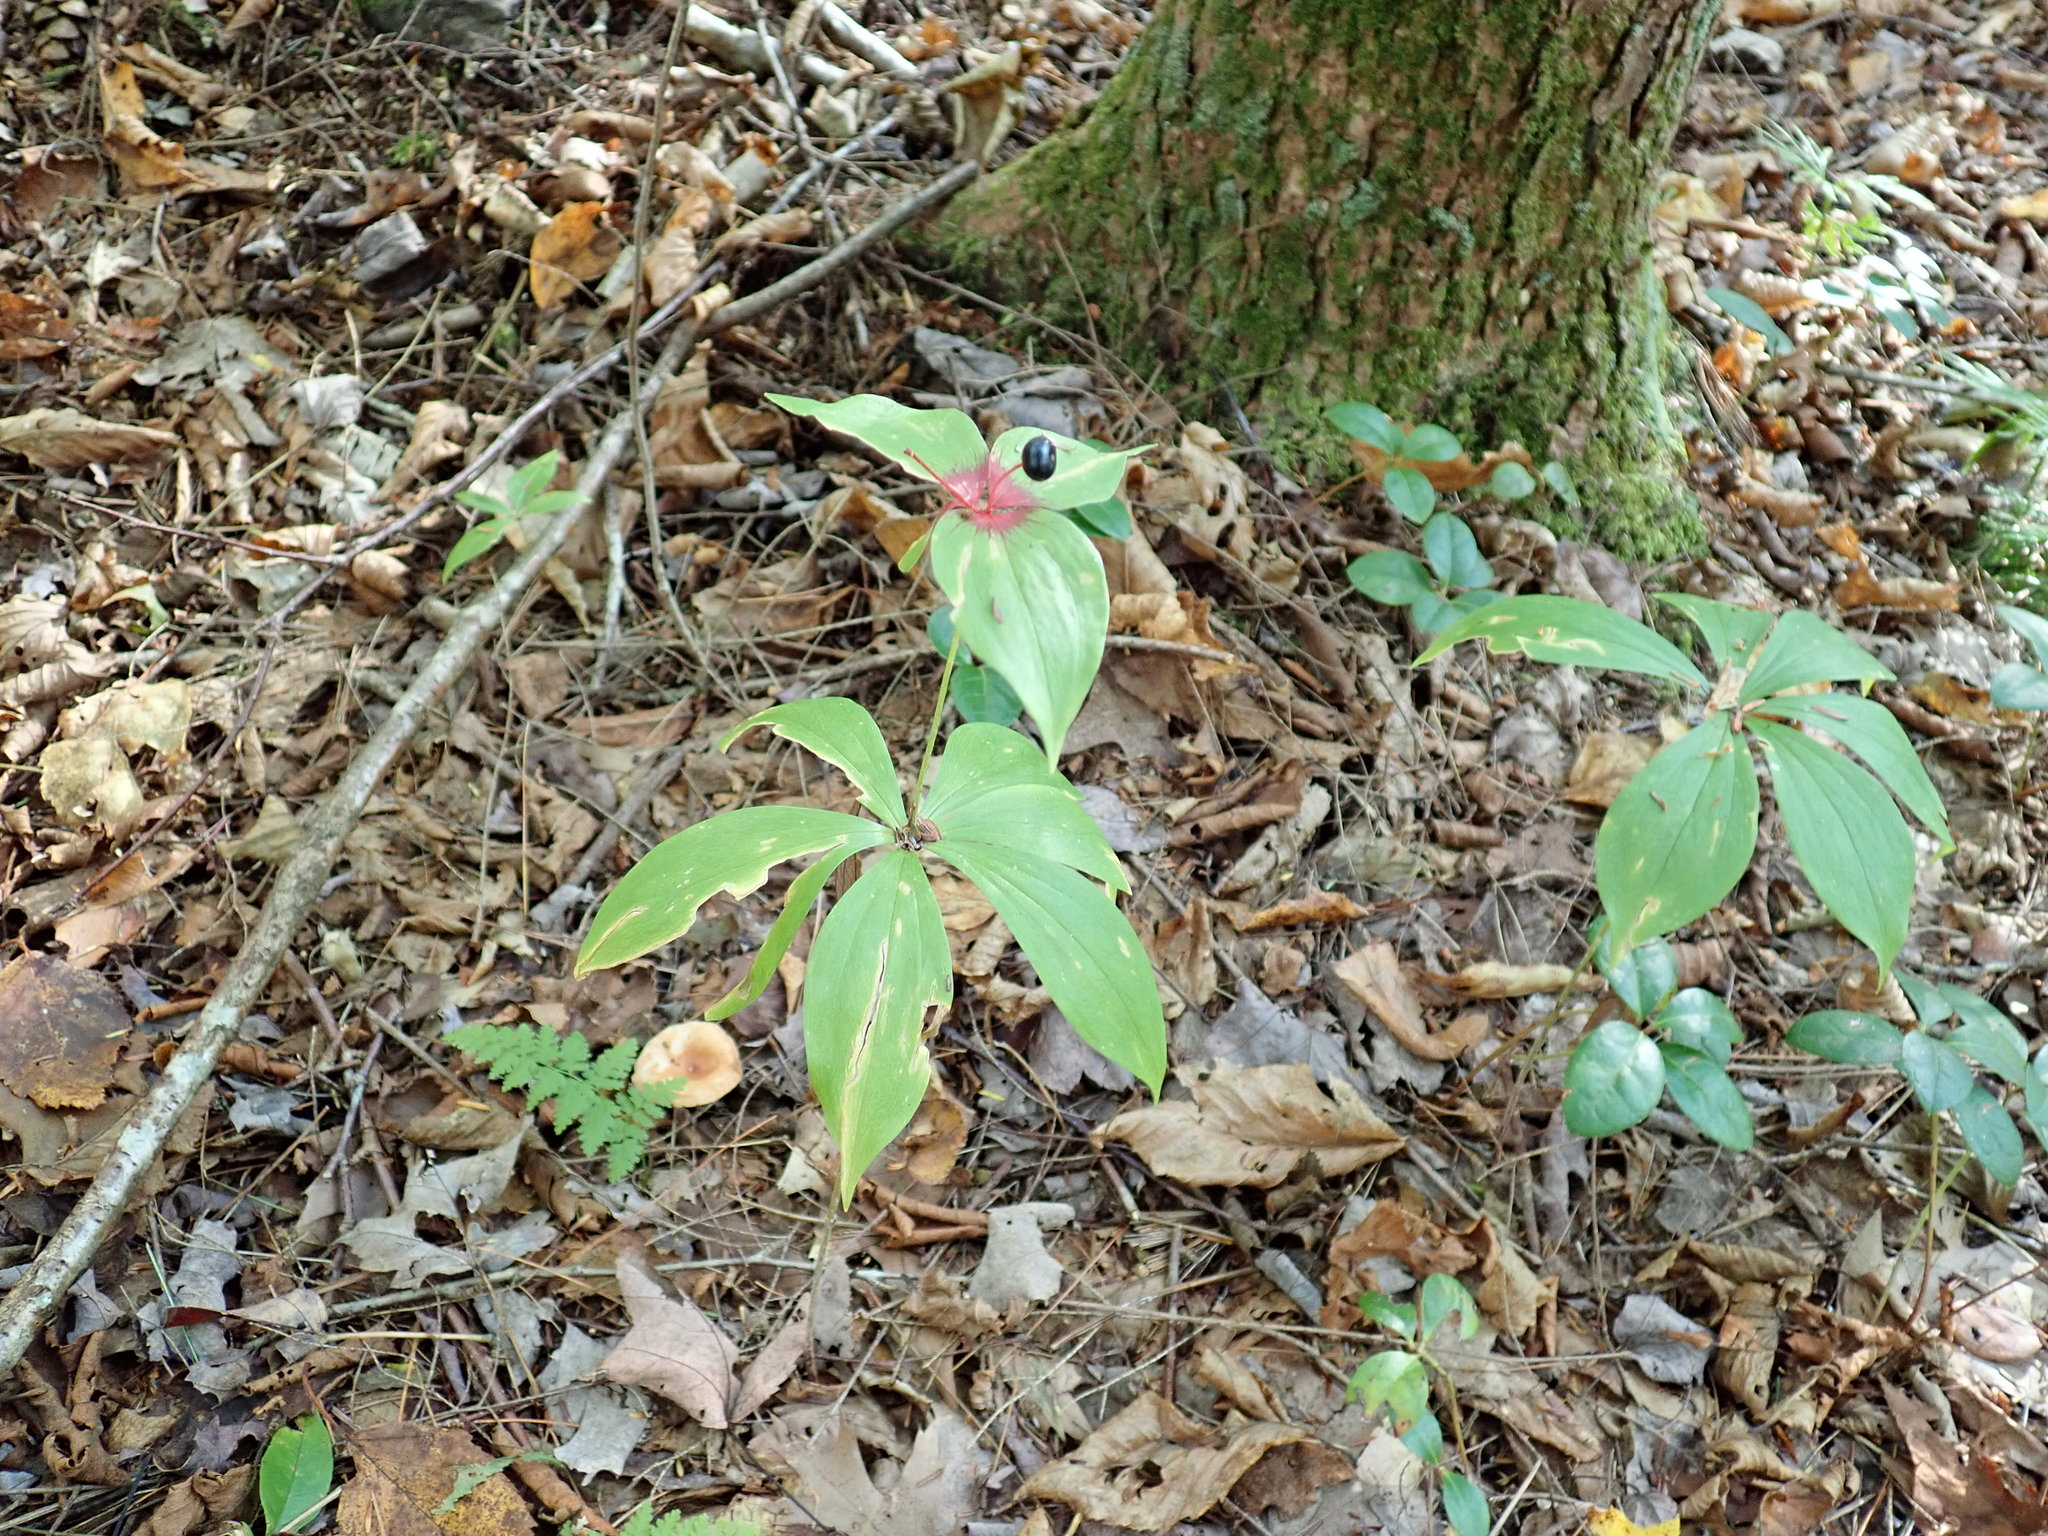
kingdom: Plantae
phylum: Tracheophyta
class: Liliopsida
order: Liliales
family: Liliaceae
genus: Medeola
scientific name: Medeola virginiana
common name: Indian cucumber-root
